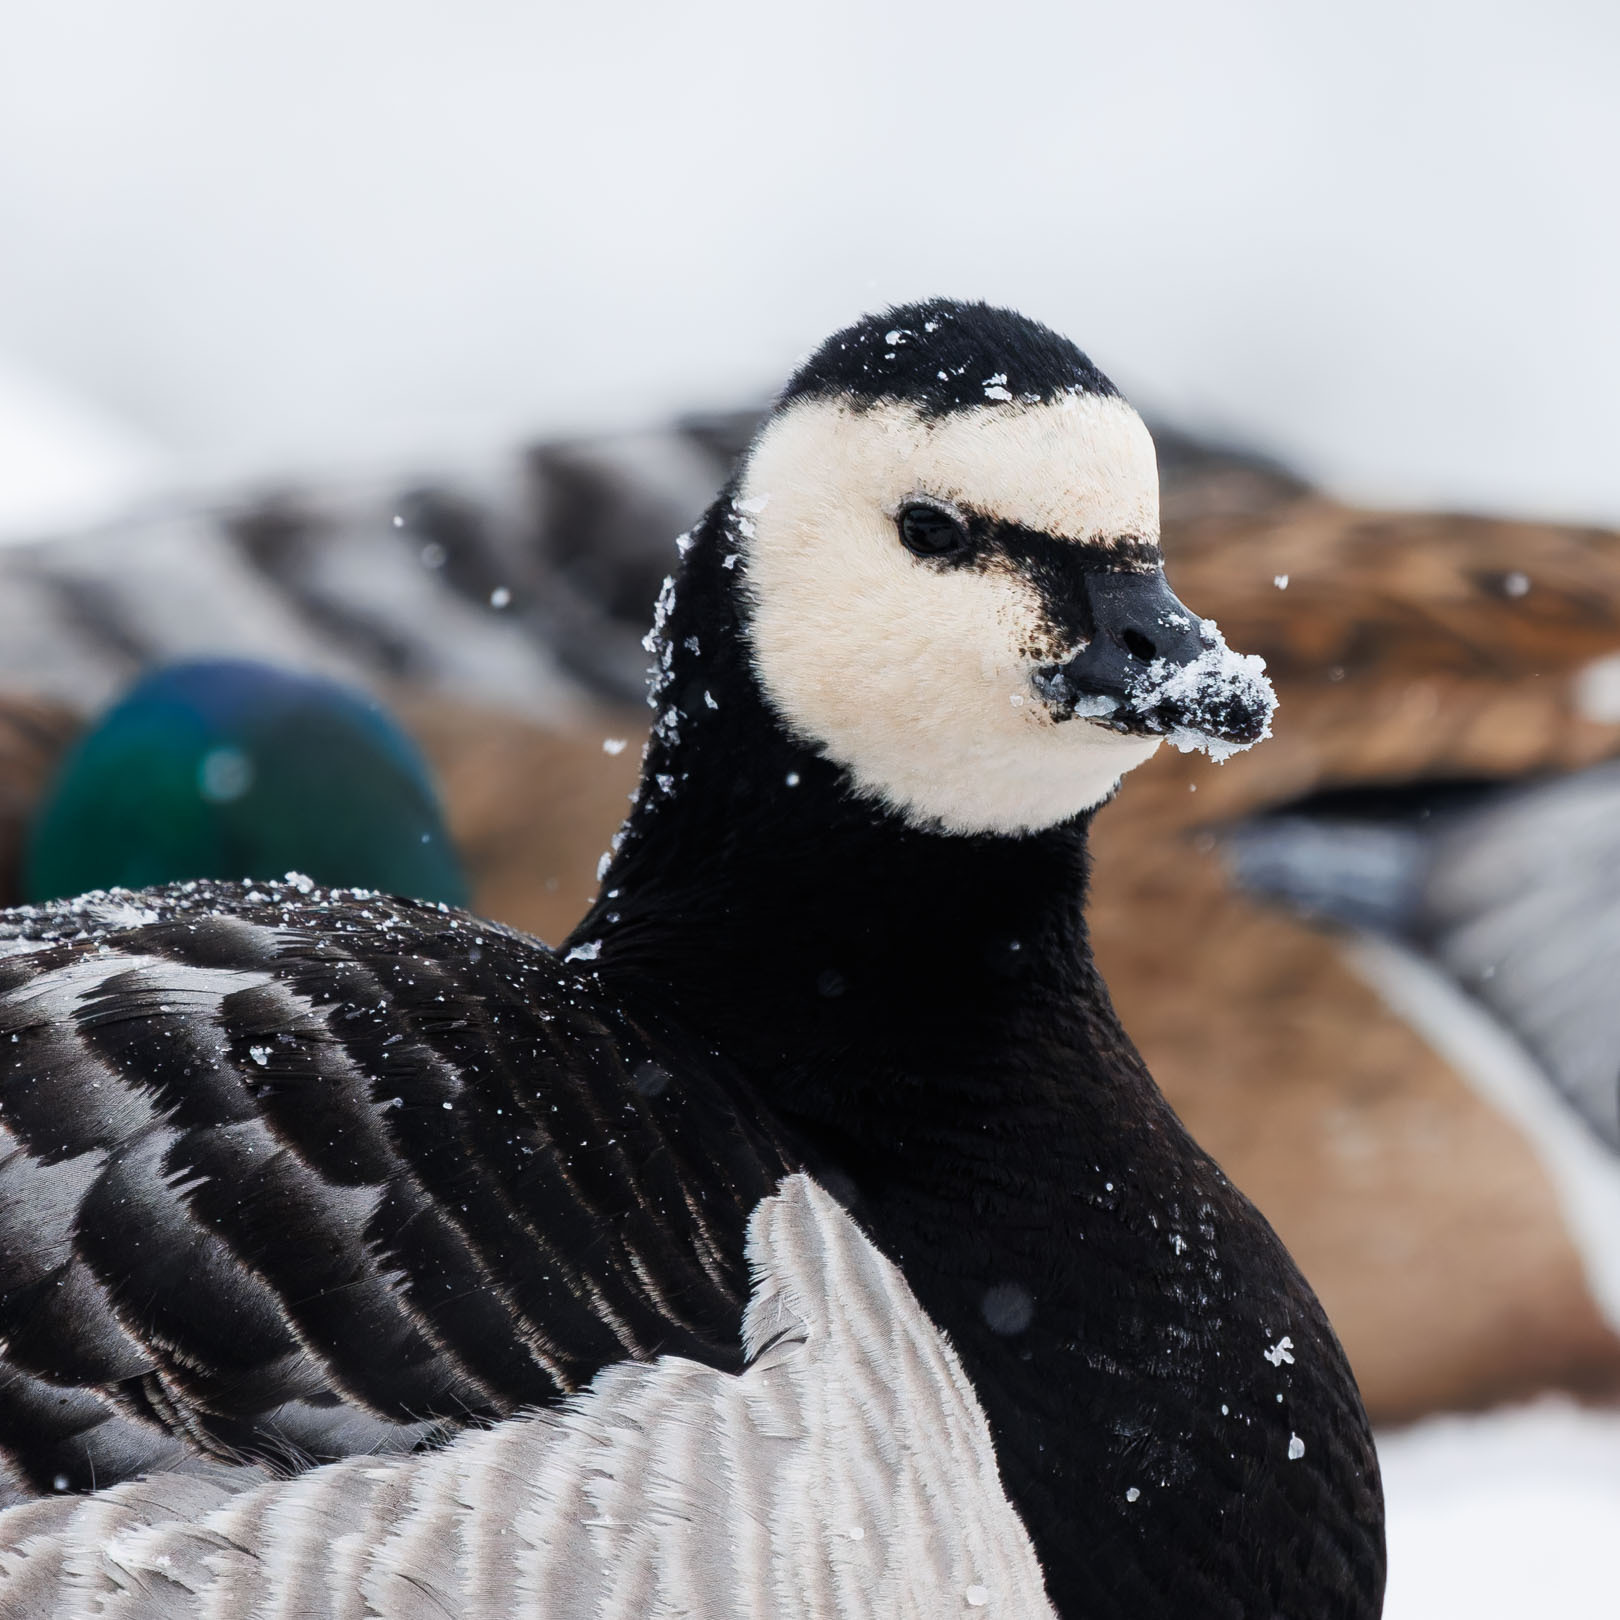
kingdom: Animalia
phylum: Chordata
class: Aves
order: Anseriformes
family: Anatidae
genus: Branta
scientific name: Branta leucopsis
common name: Barnacle goose
